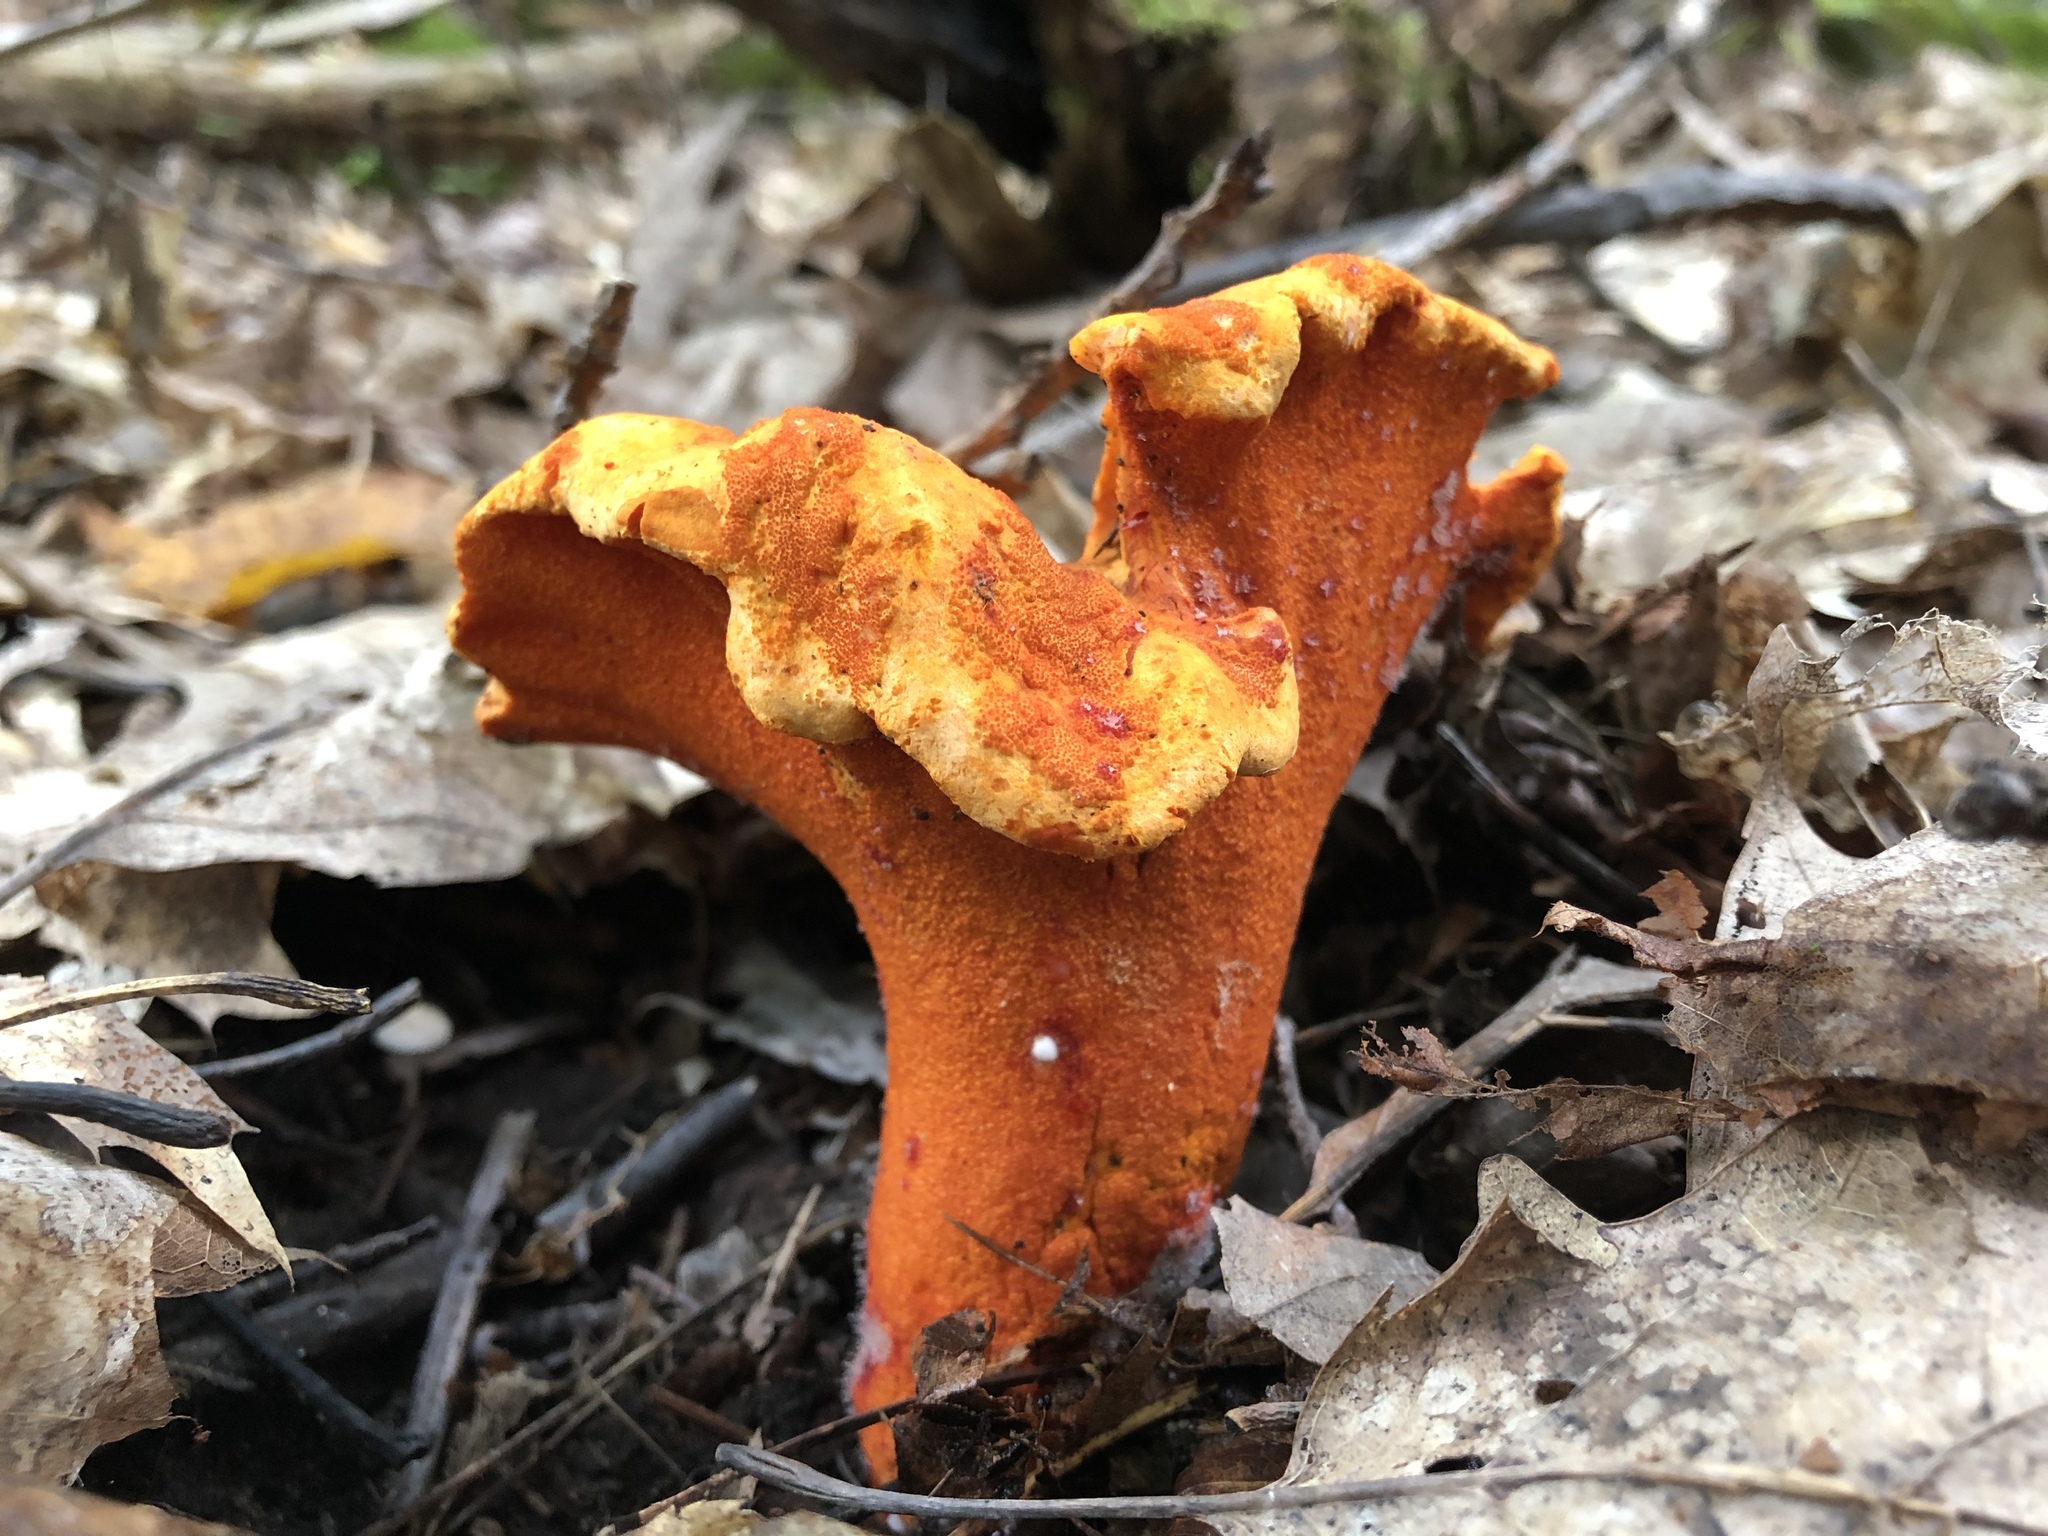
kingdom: Fungi
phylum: Ascomycota
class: Sordariomycetes
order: Hypocreales
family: Hypocreaceae
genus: Hypomyces
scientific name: Hypomyces lactifluorum
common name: Lobster mushroom
